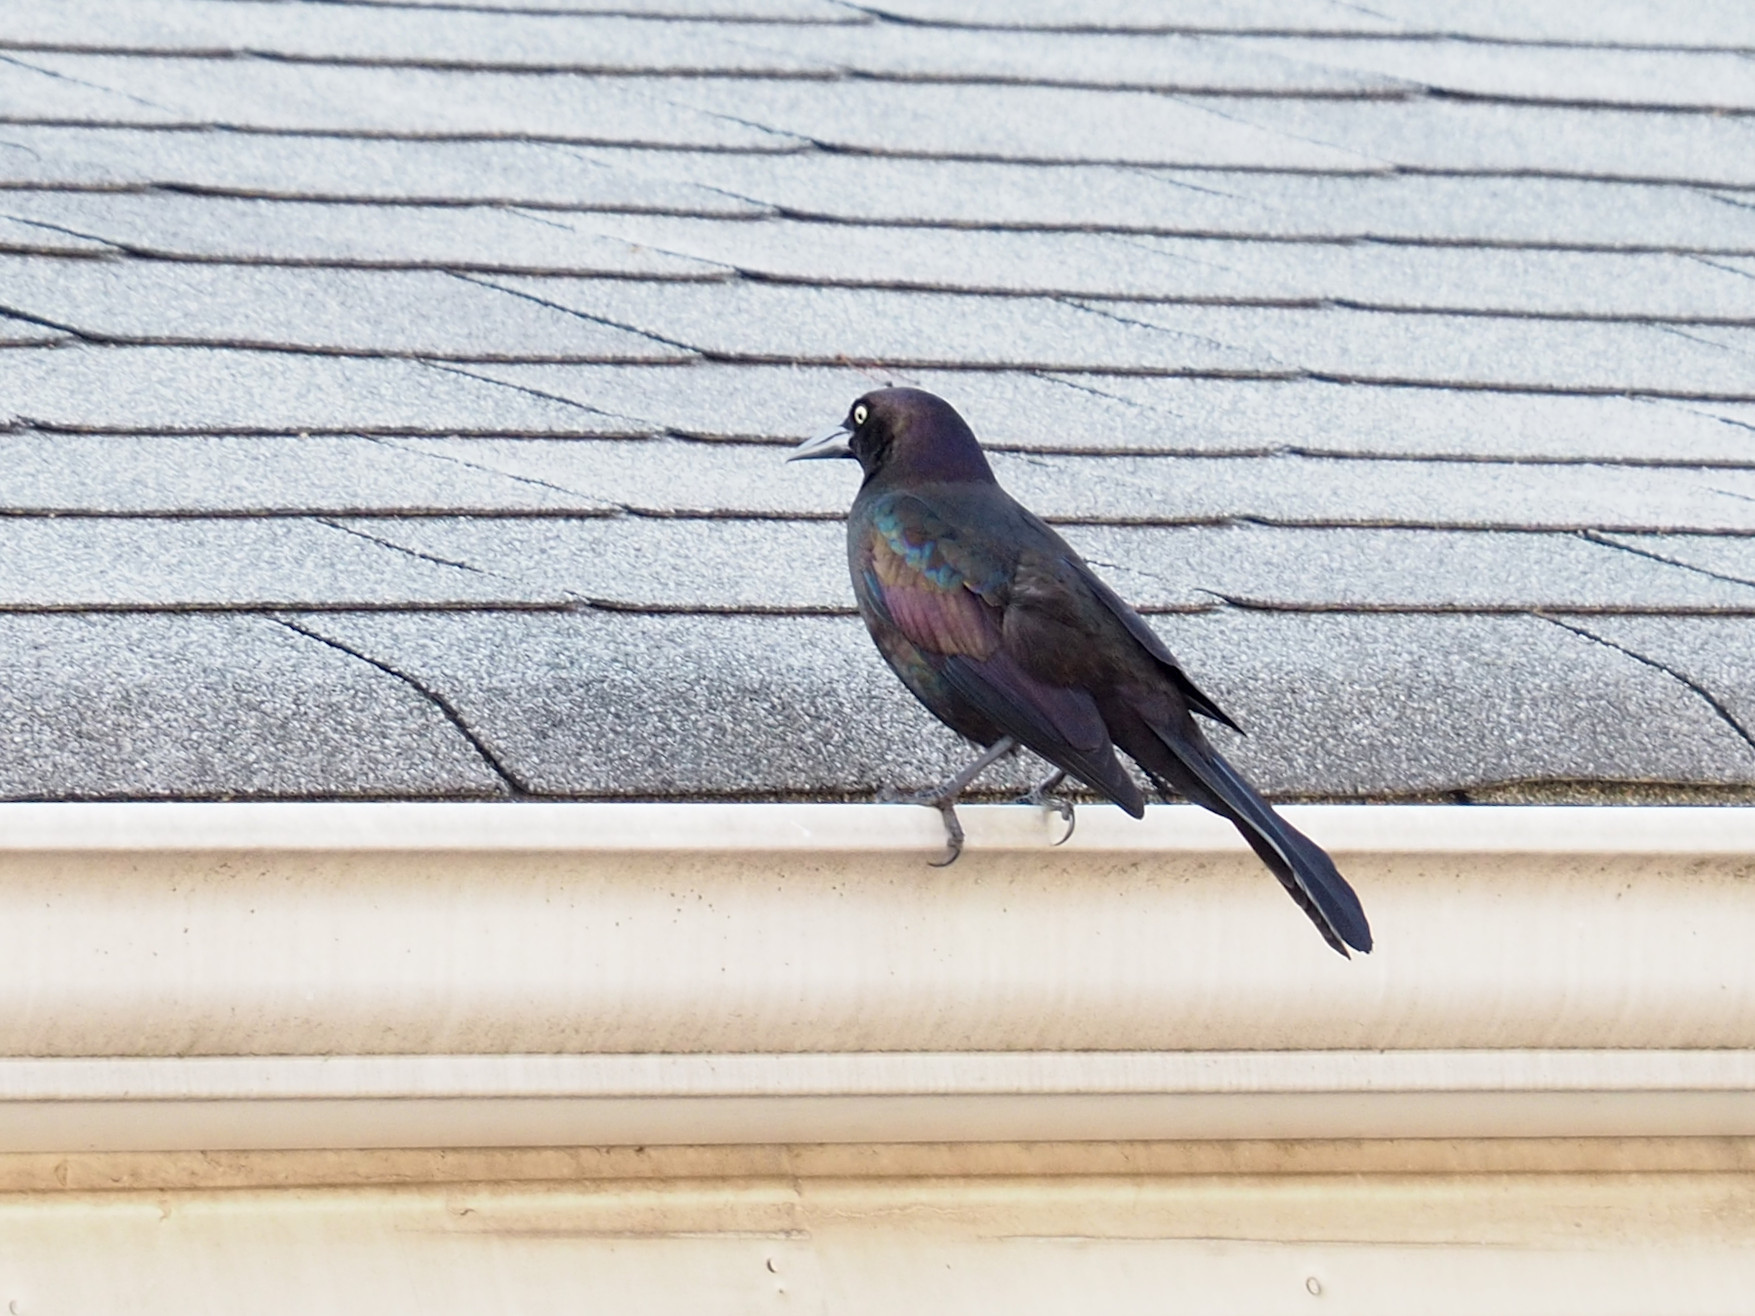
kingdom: Animalia
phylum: Chordata
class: Aves
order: Passeriformes
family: Icteridae
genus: Quiscalus
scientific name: Quiscalus quiscula
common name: Common grackle
